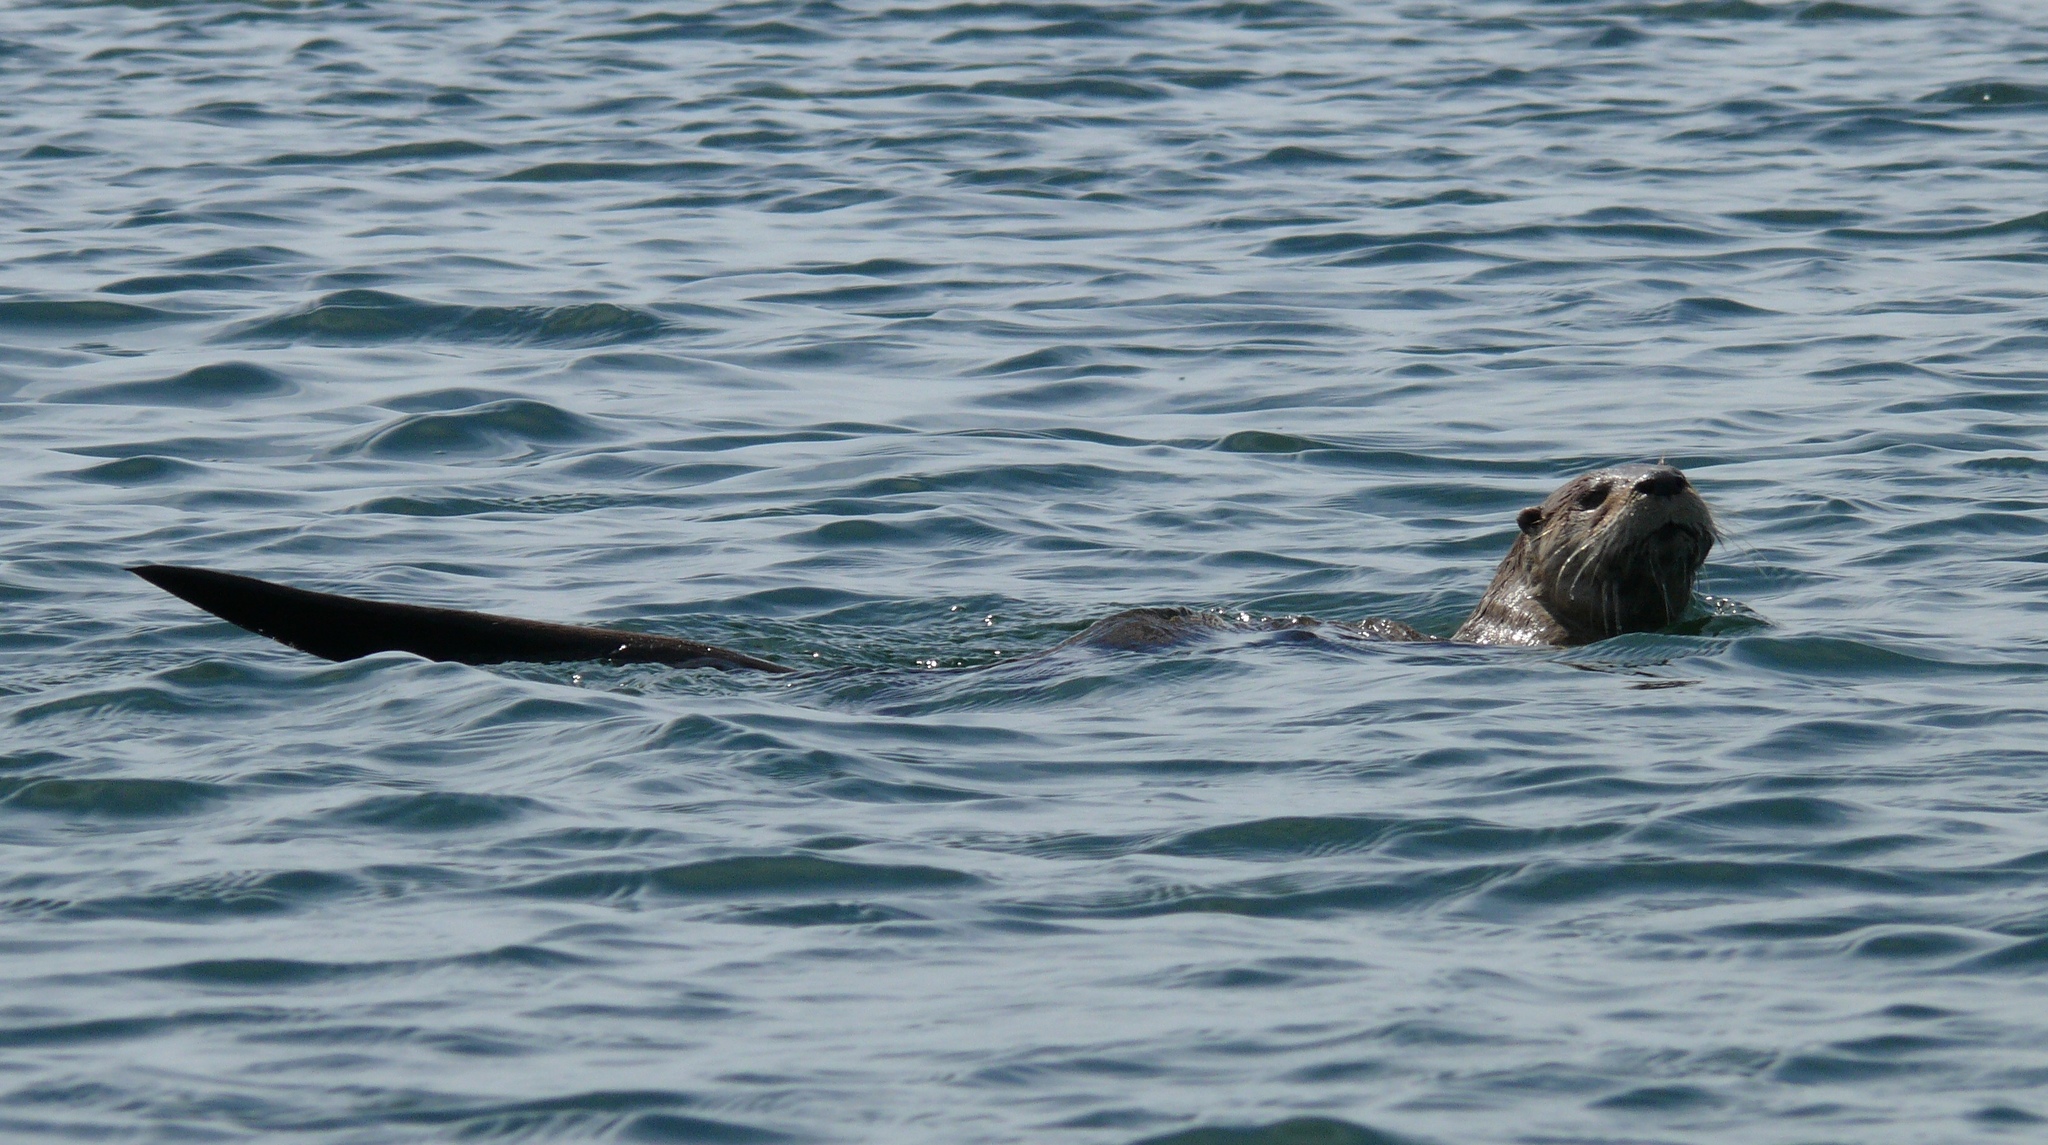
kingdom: Animalia
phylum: Chordata
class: Mammalia
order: Carnivora
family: Mustelidae
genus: Lontra
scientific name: Lontra canadensis
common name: North american river otter
